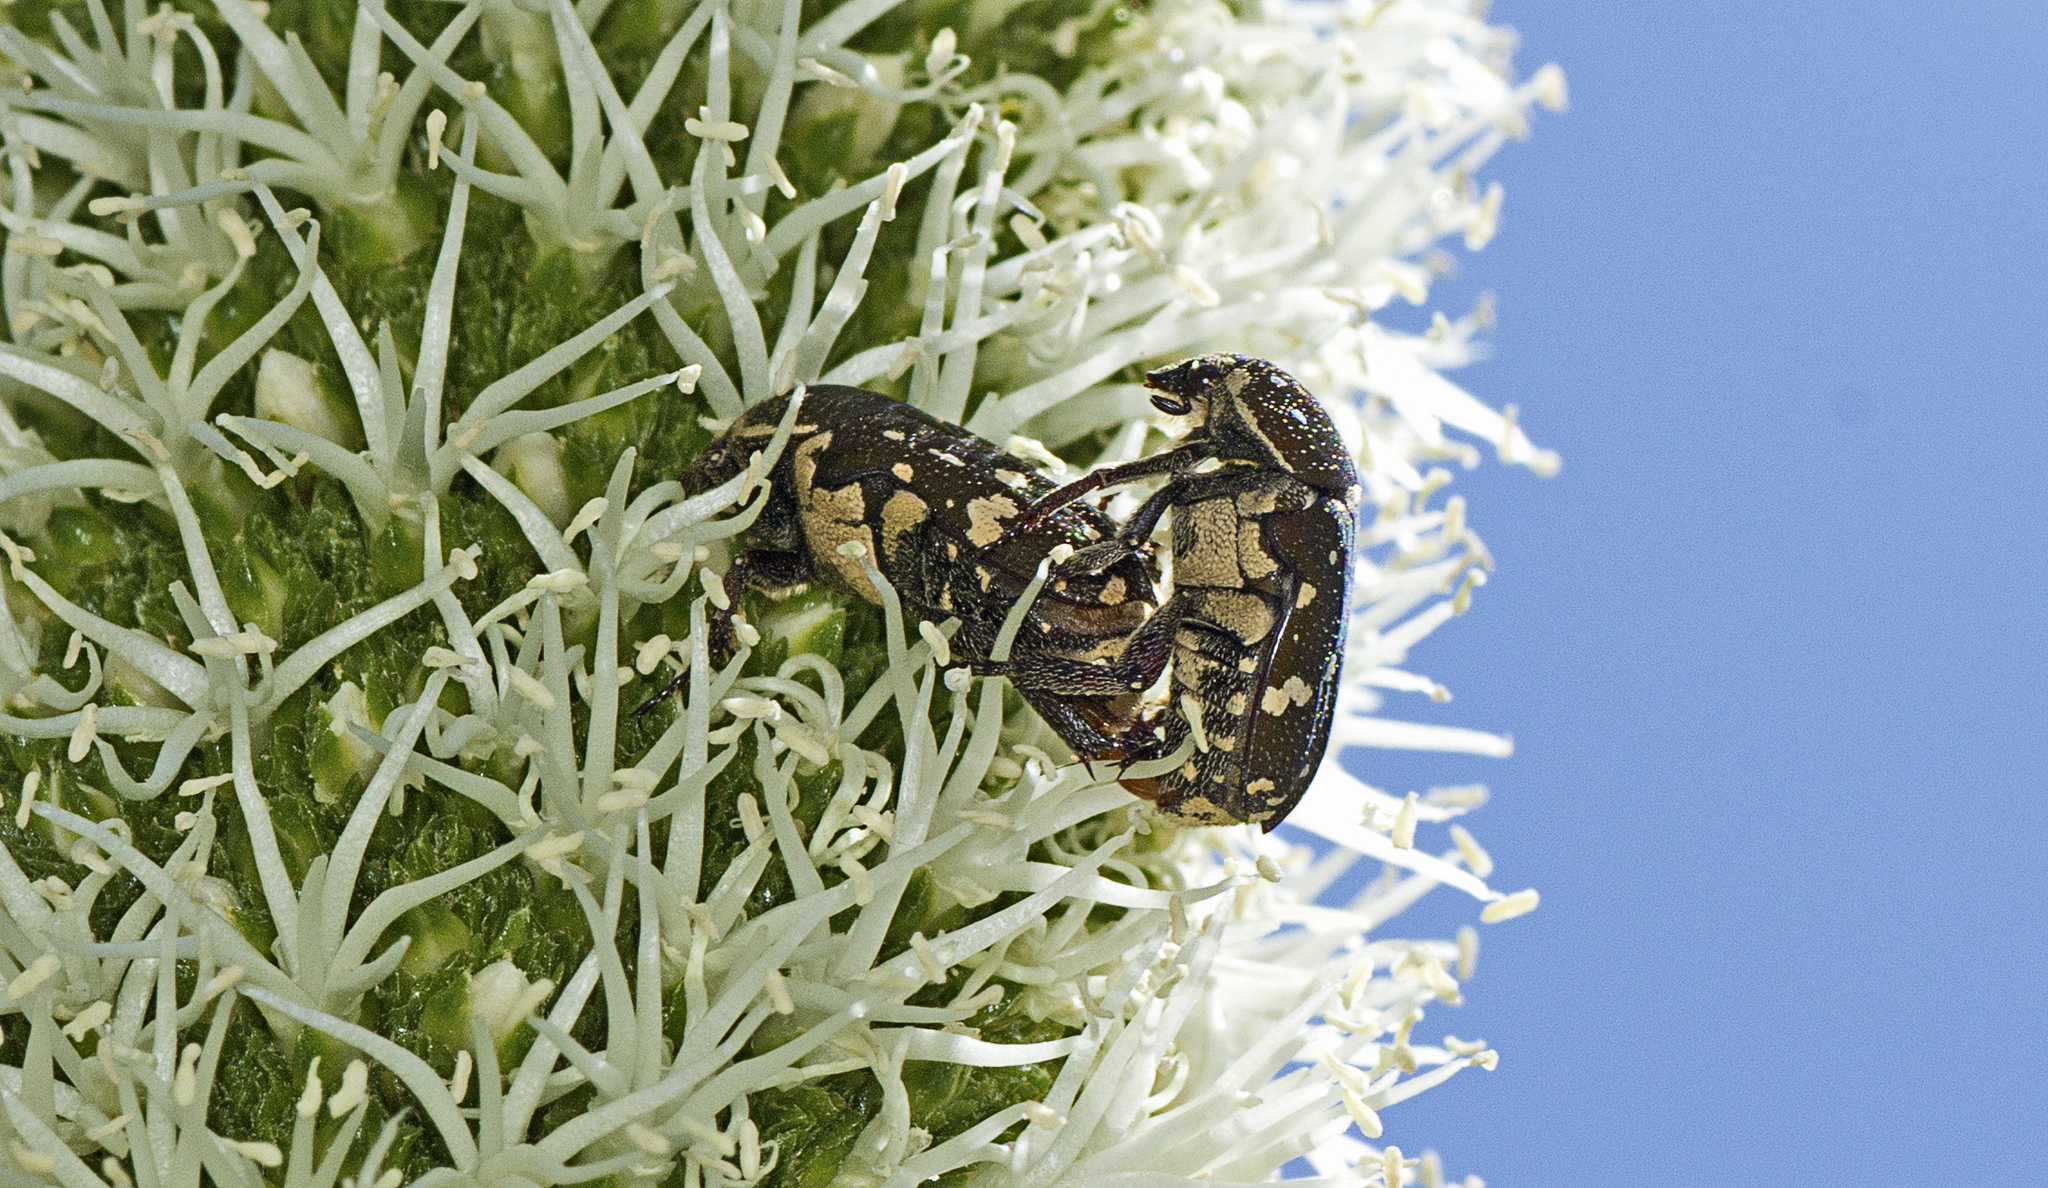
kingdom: Animalia
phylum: Arthropoda
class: Insecta
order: Coleoptera
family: Scarabaeidae
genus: Glycyphana
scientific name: Glycyphana stolata
